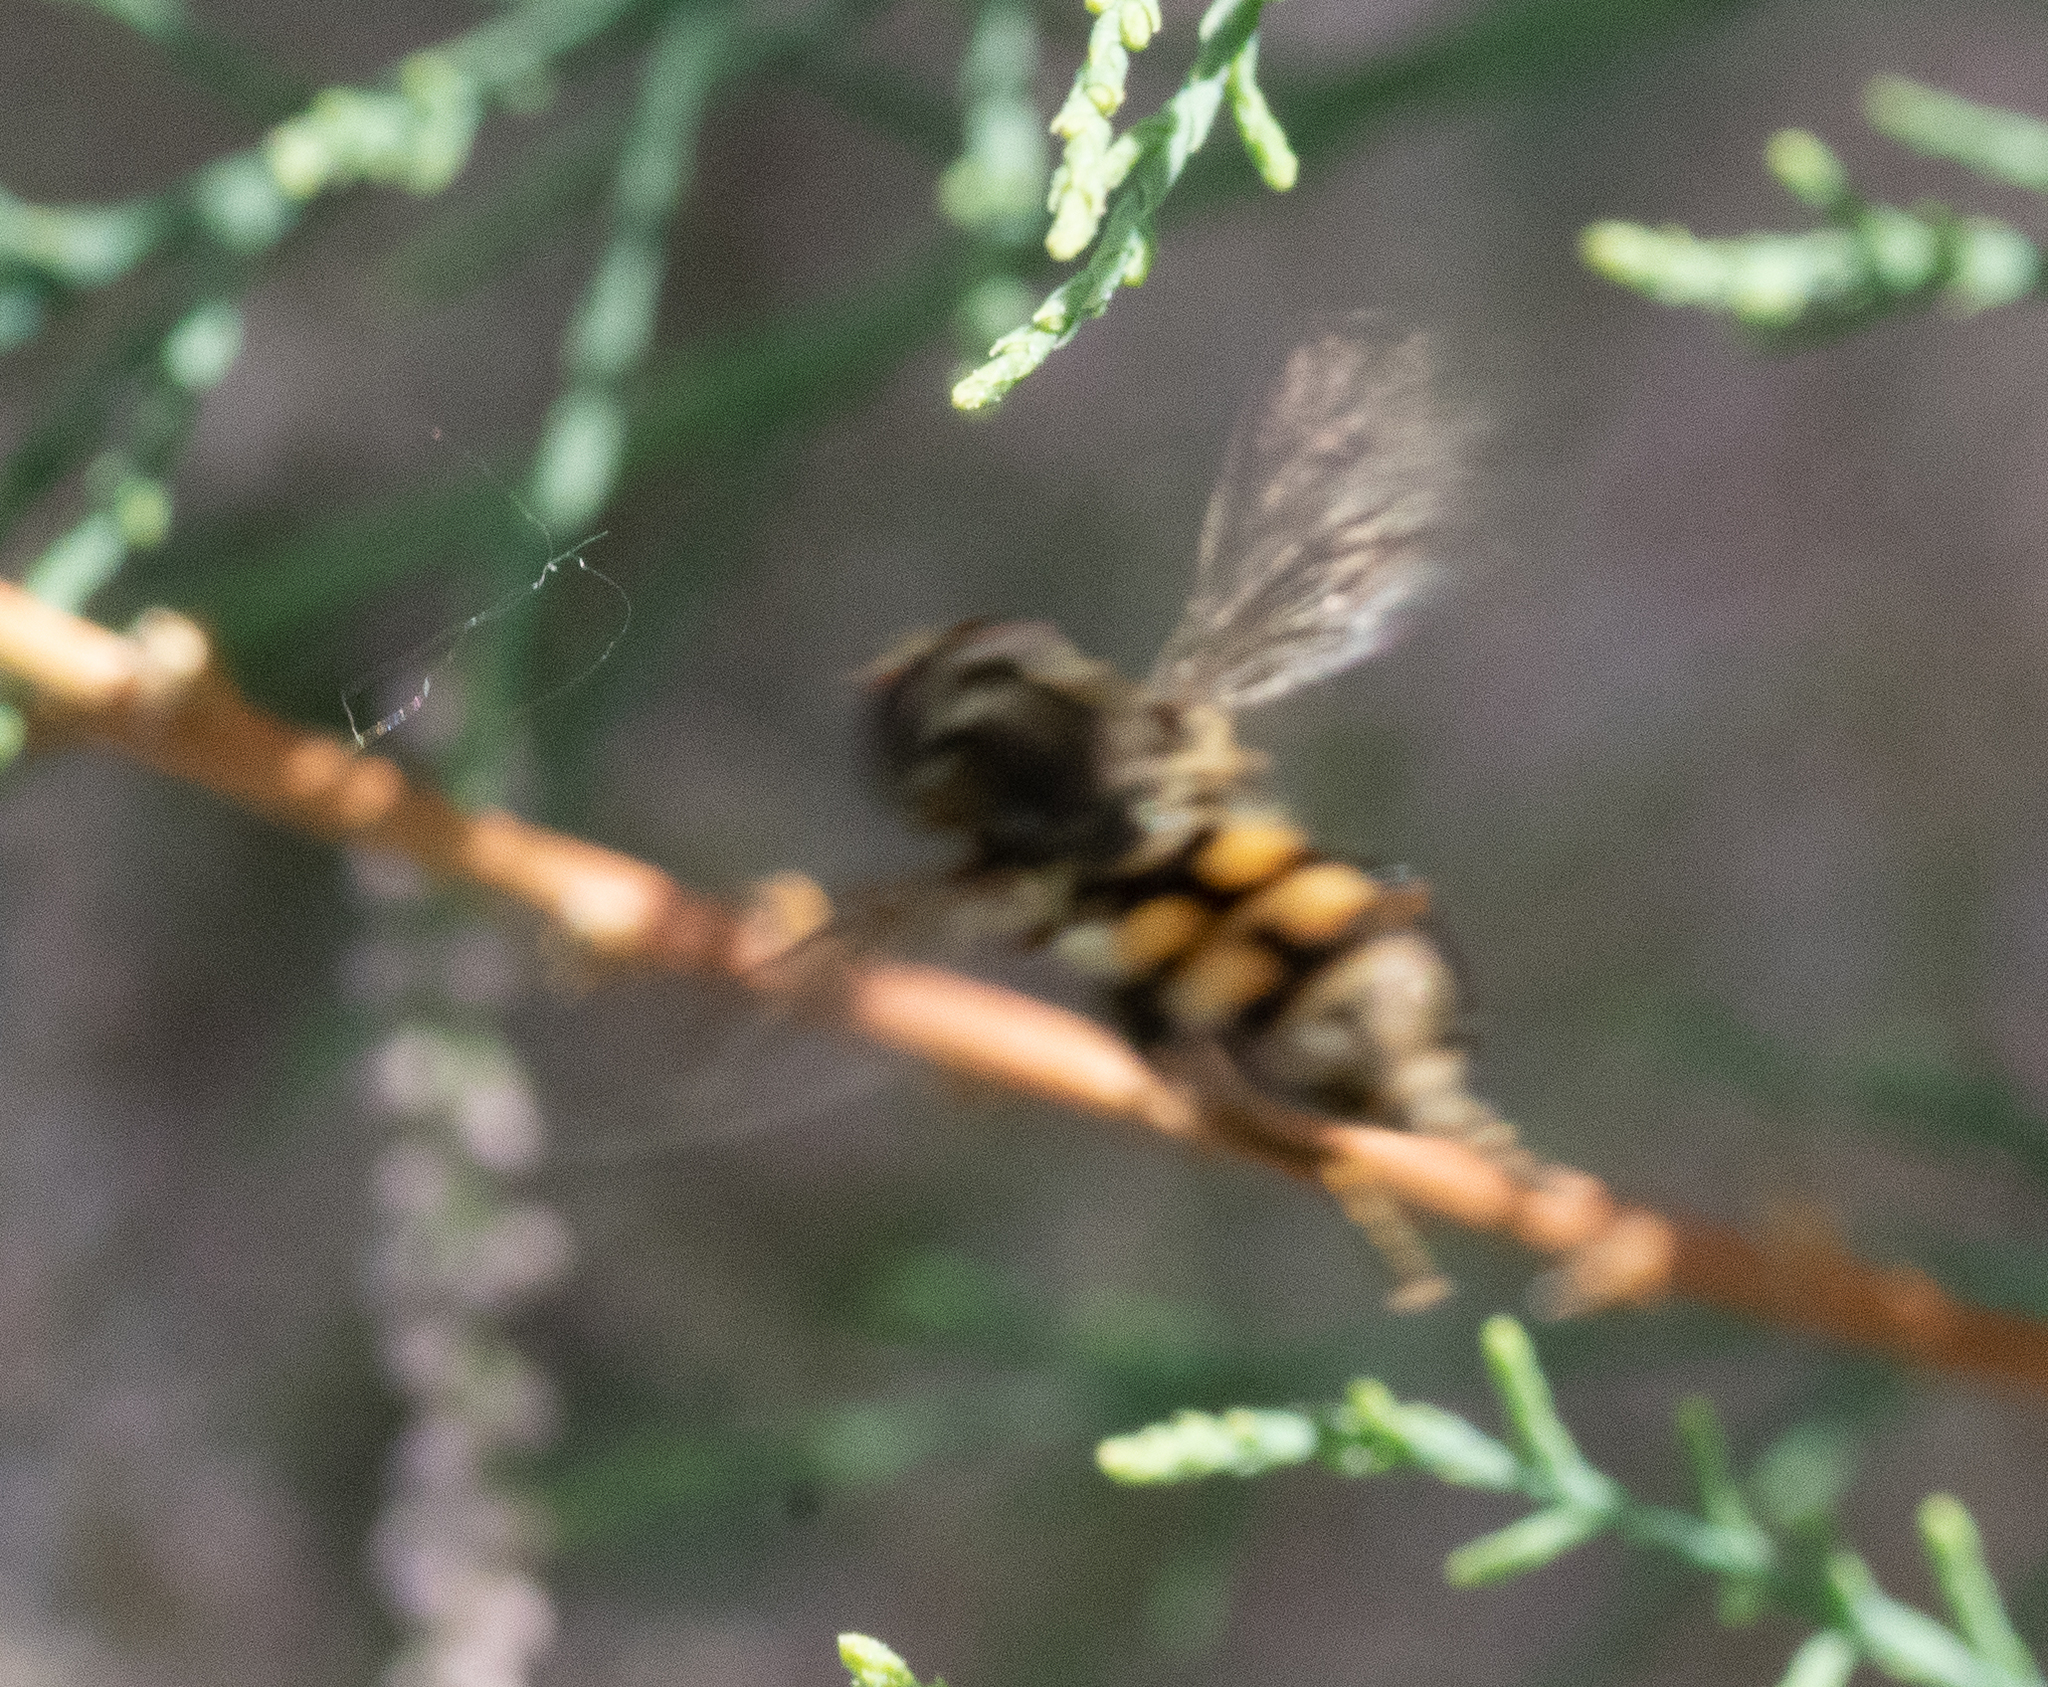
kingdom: Animalia
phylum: Arthropoda
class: Insecta
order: Diptera
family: Syrphidae
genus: Tropidia
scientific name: Tropidia quadrata
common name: Common thick-legged fly
